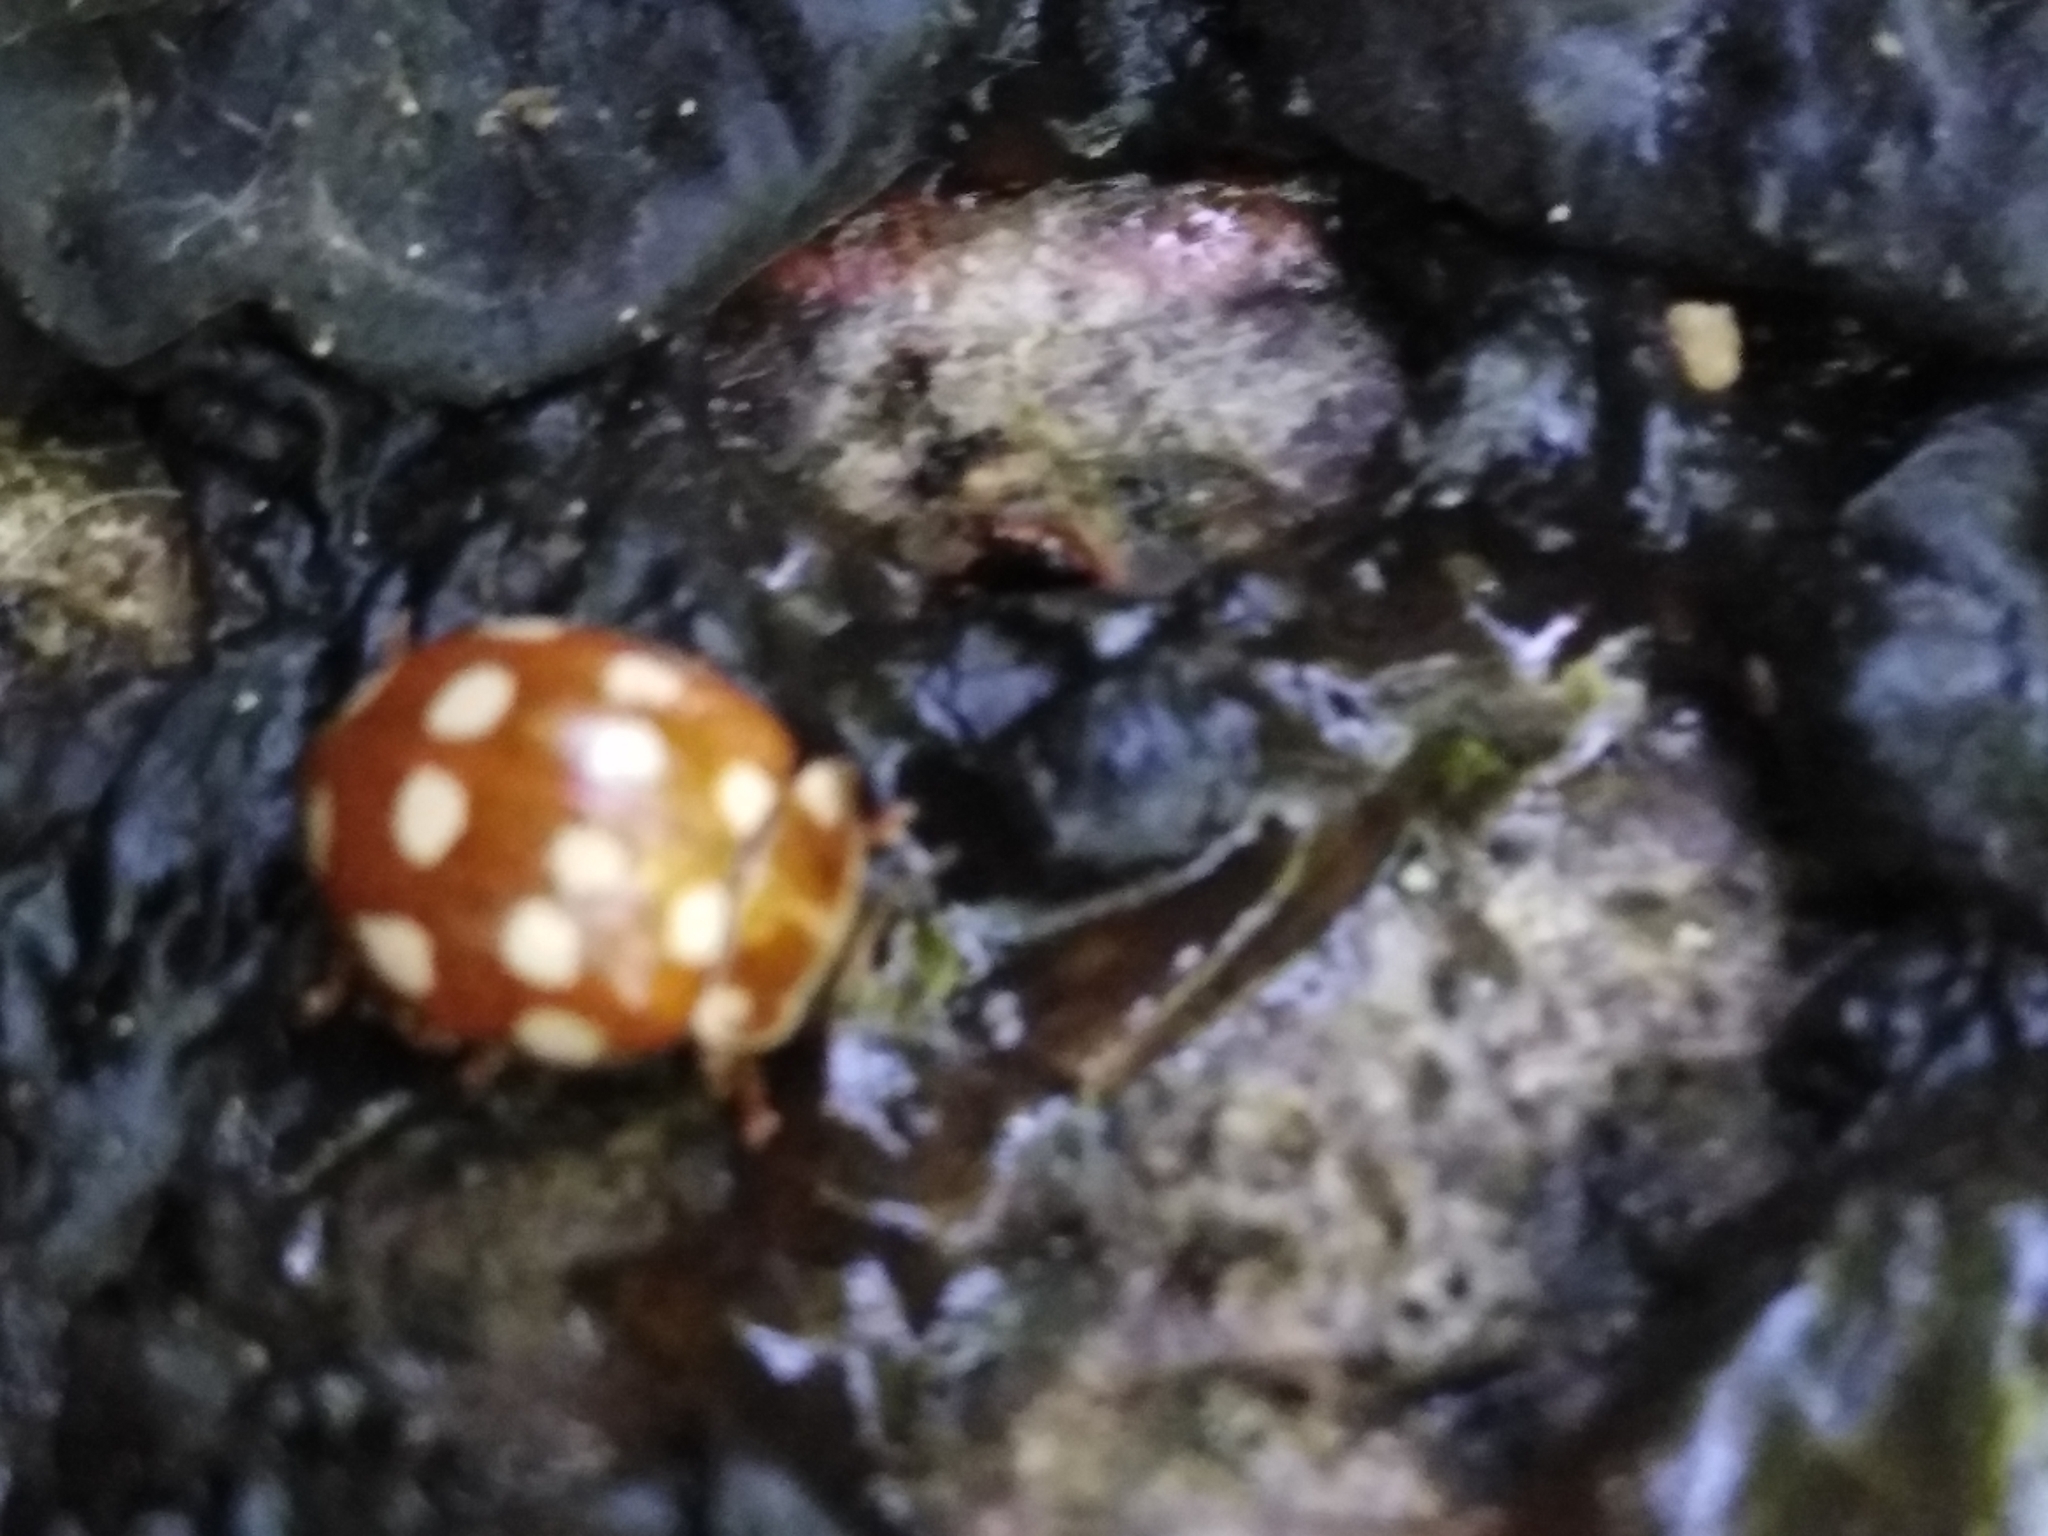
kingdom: Animalia
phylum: Arthropoda
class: Insecta
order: Coleoptera
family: Coccinellidae
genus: Calvia
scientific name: Calvia quatuordecimguttata
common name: Cream-spot ladybird
